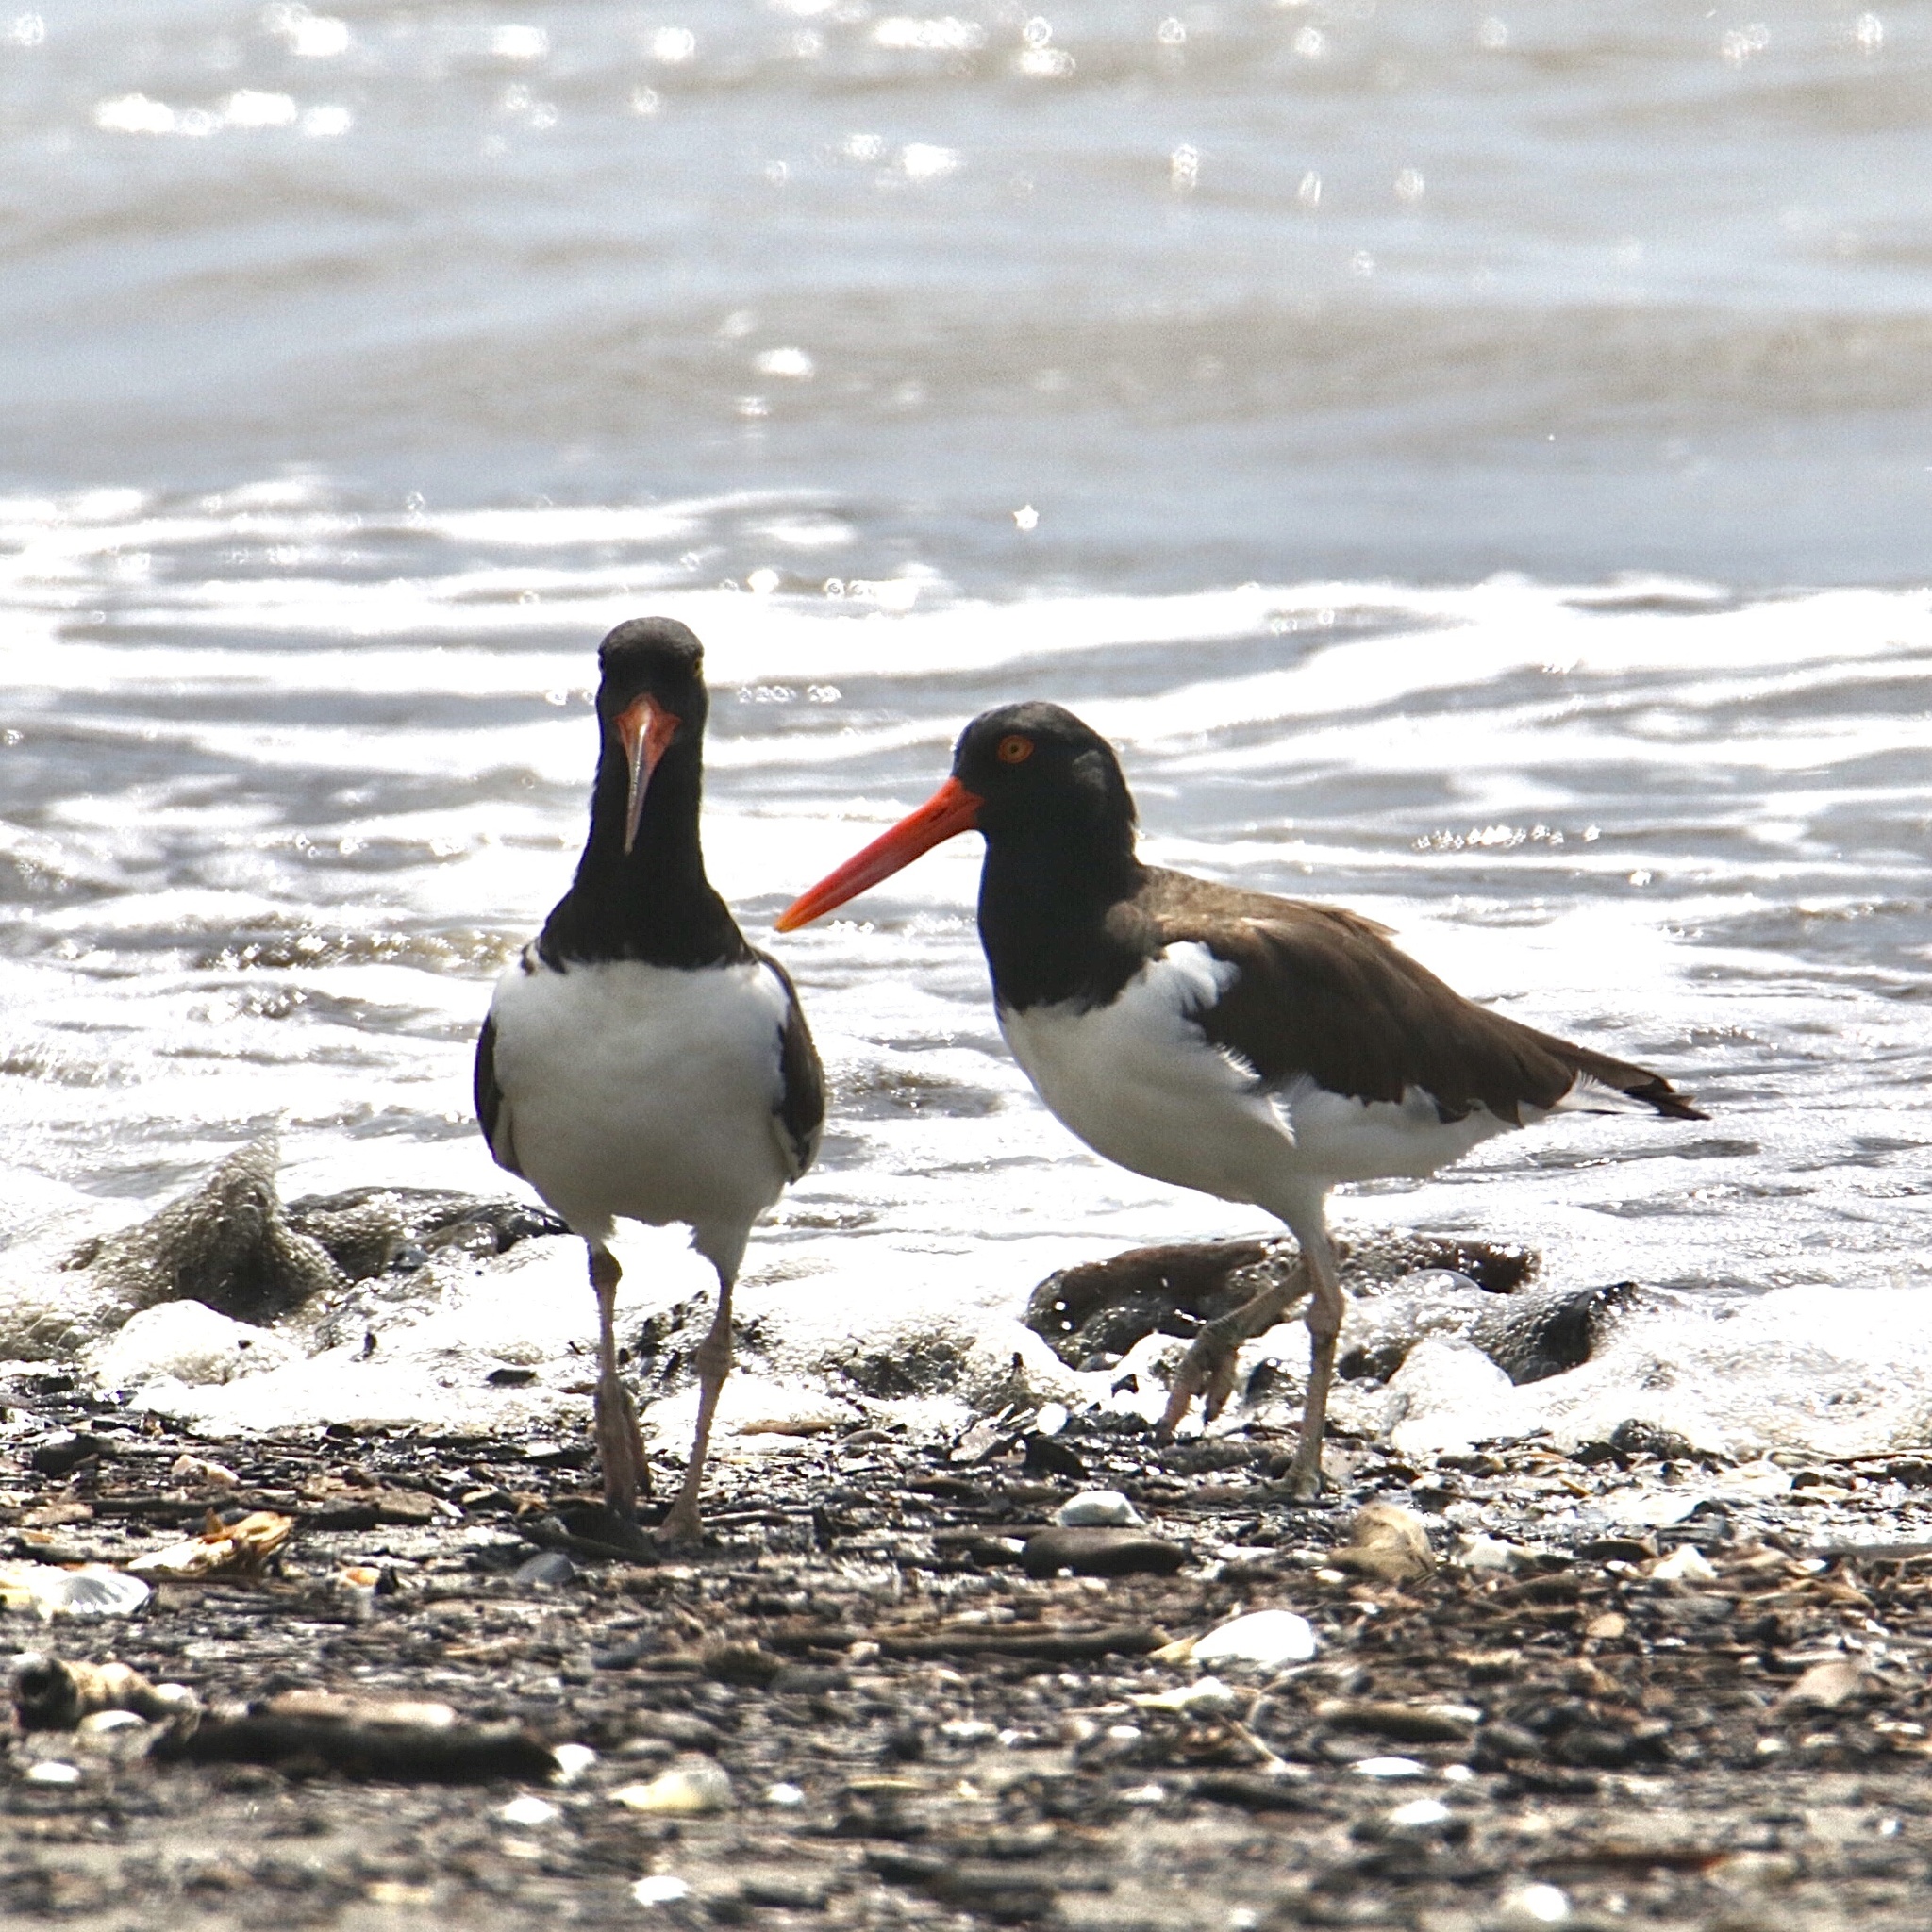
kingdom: Animalia
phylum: Chordata
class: Aves
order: Charadriiformes
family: Haematopodidae
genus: Haematopus
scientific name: Haematopus palliatus
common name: American oystercatcher
